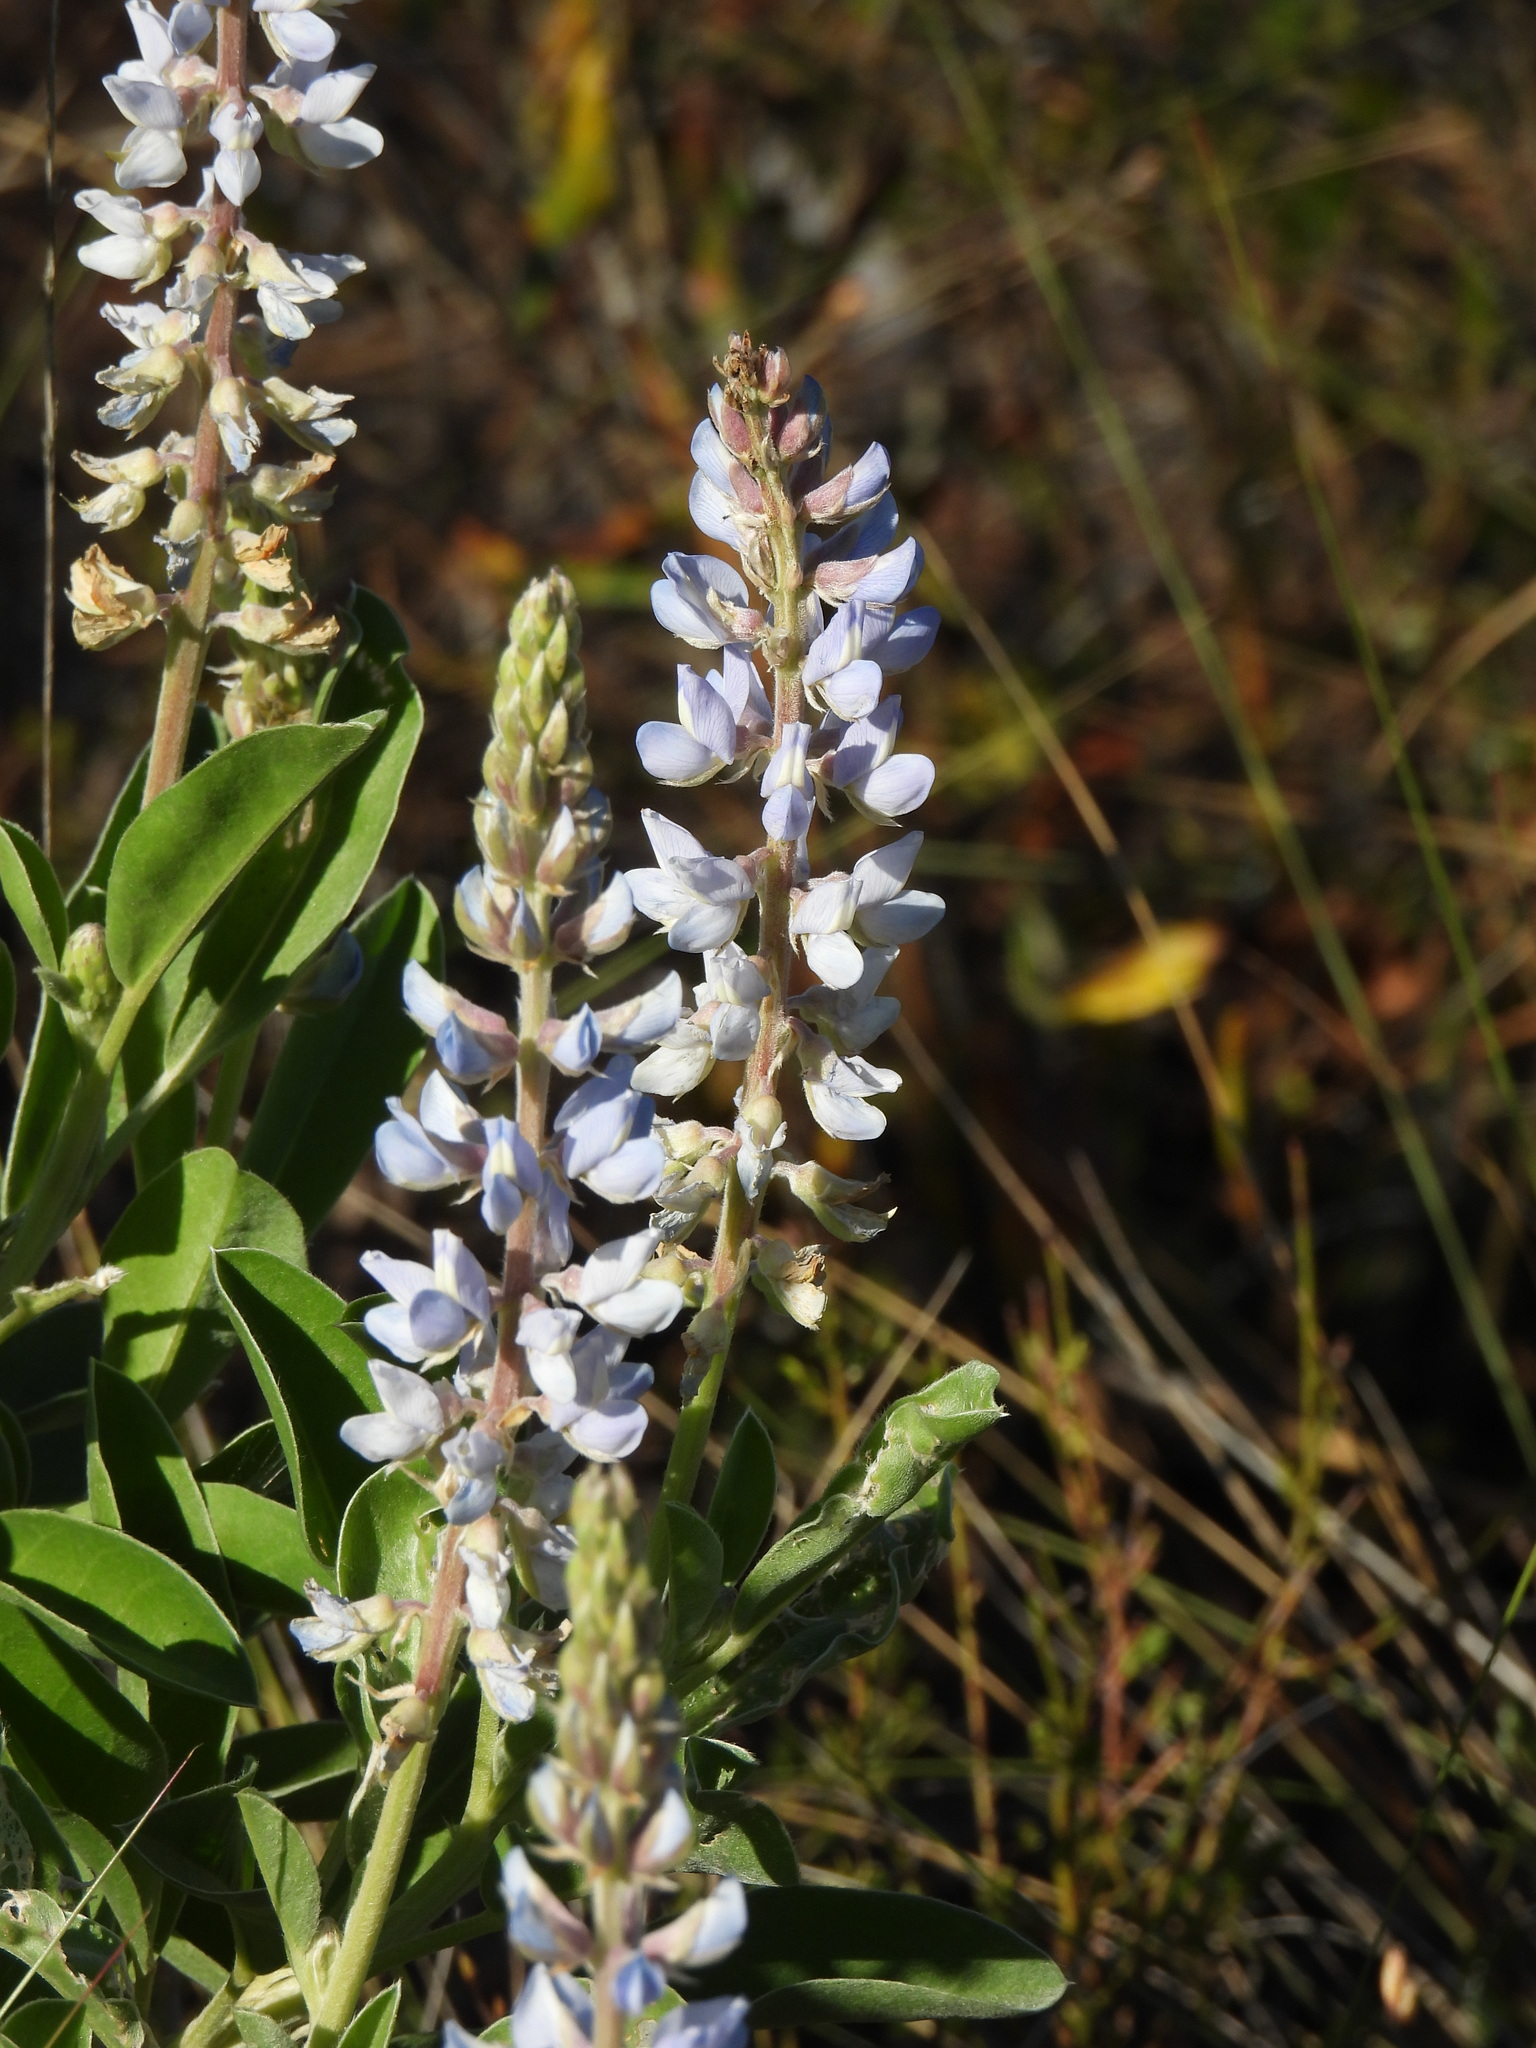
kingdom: Plantae
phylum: Tracheophyta
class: Magnoliopsida
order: Fabales
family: Fabaceae
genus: Lupinus
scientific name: Lupinus
